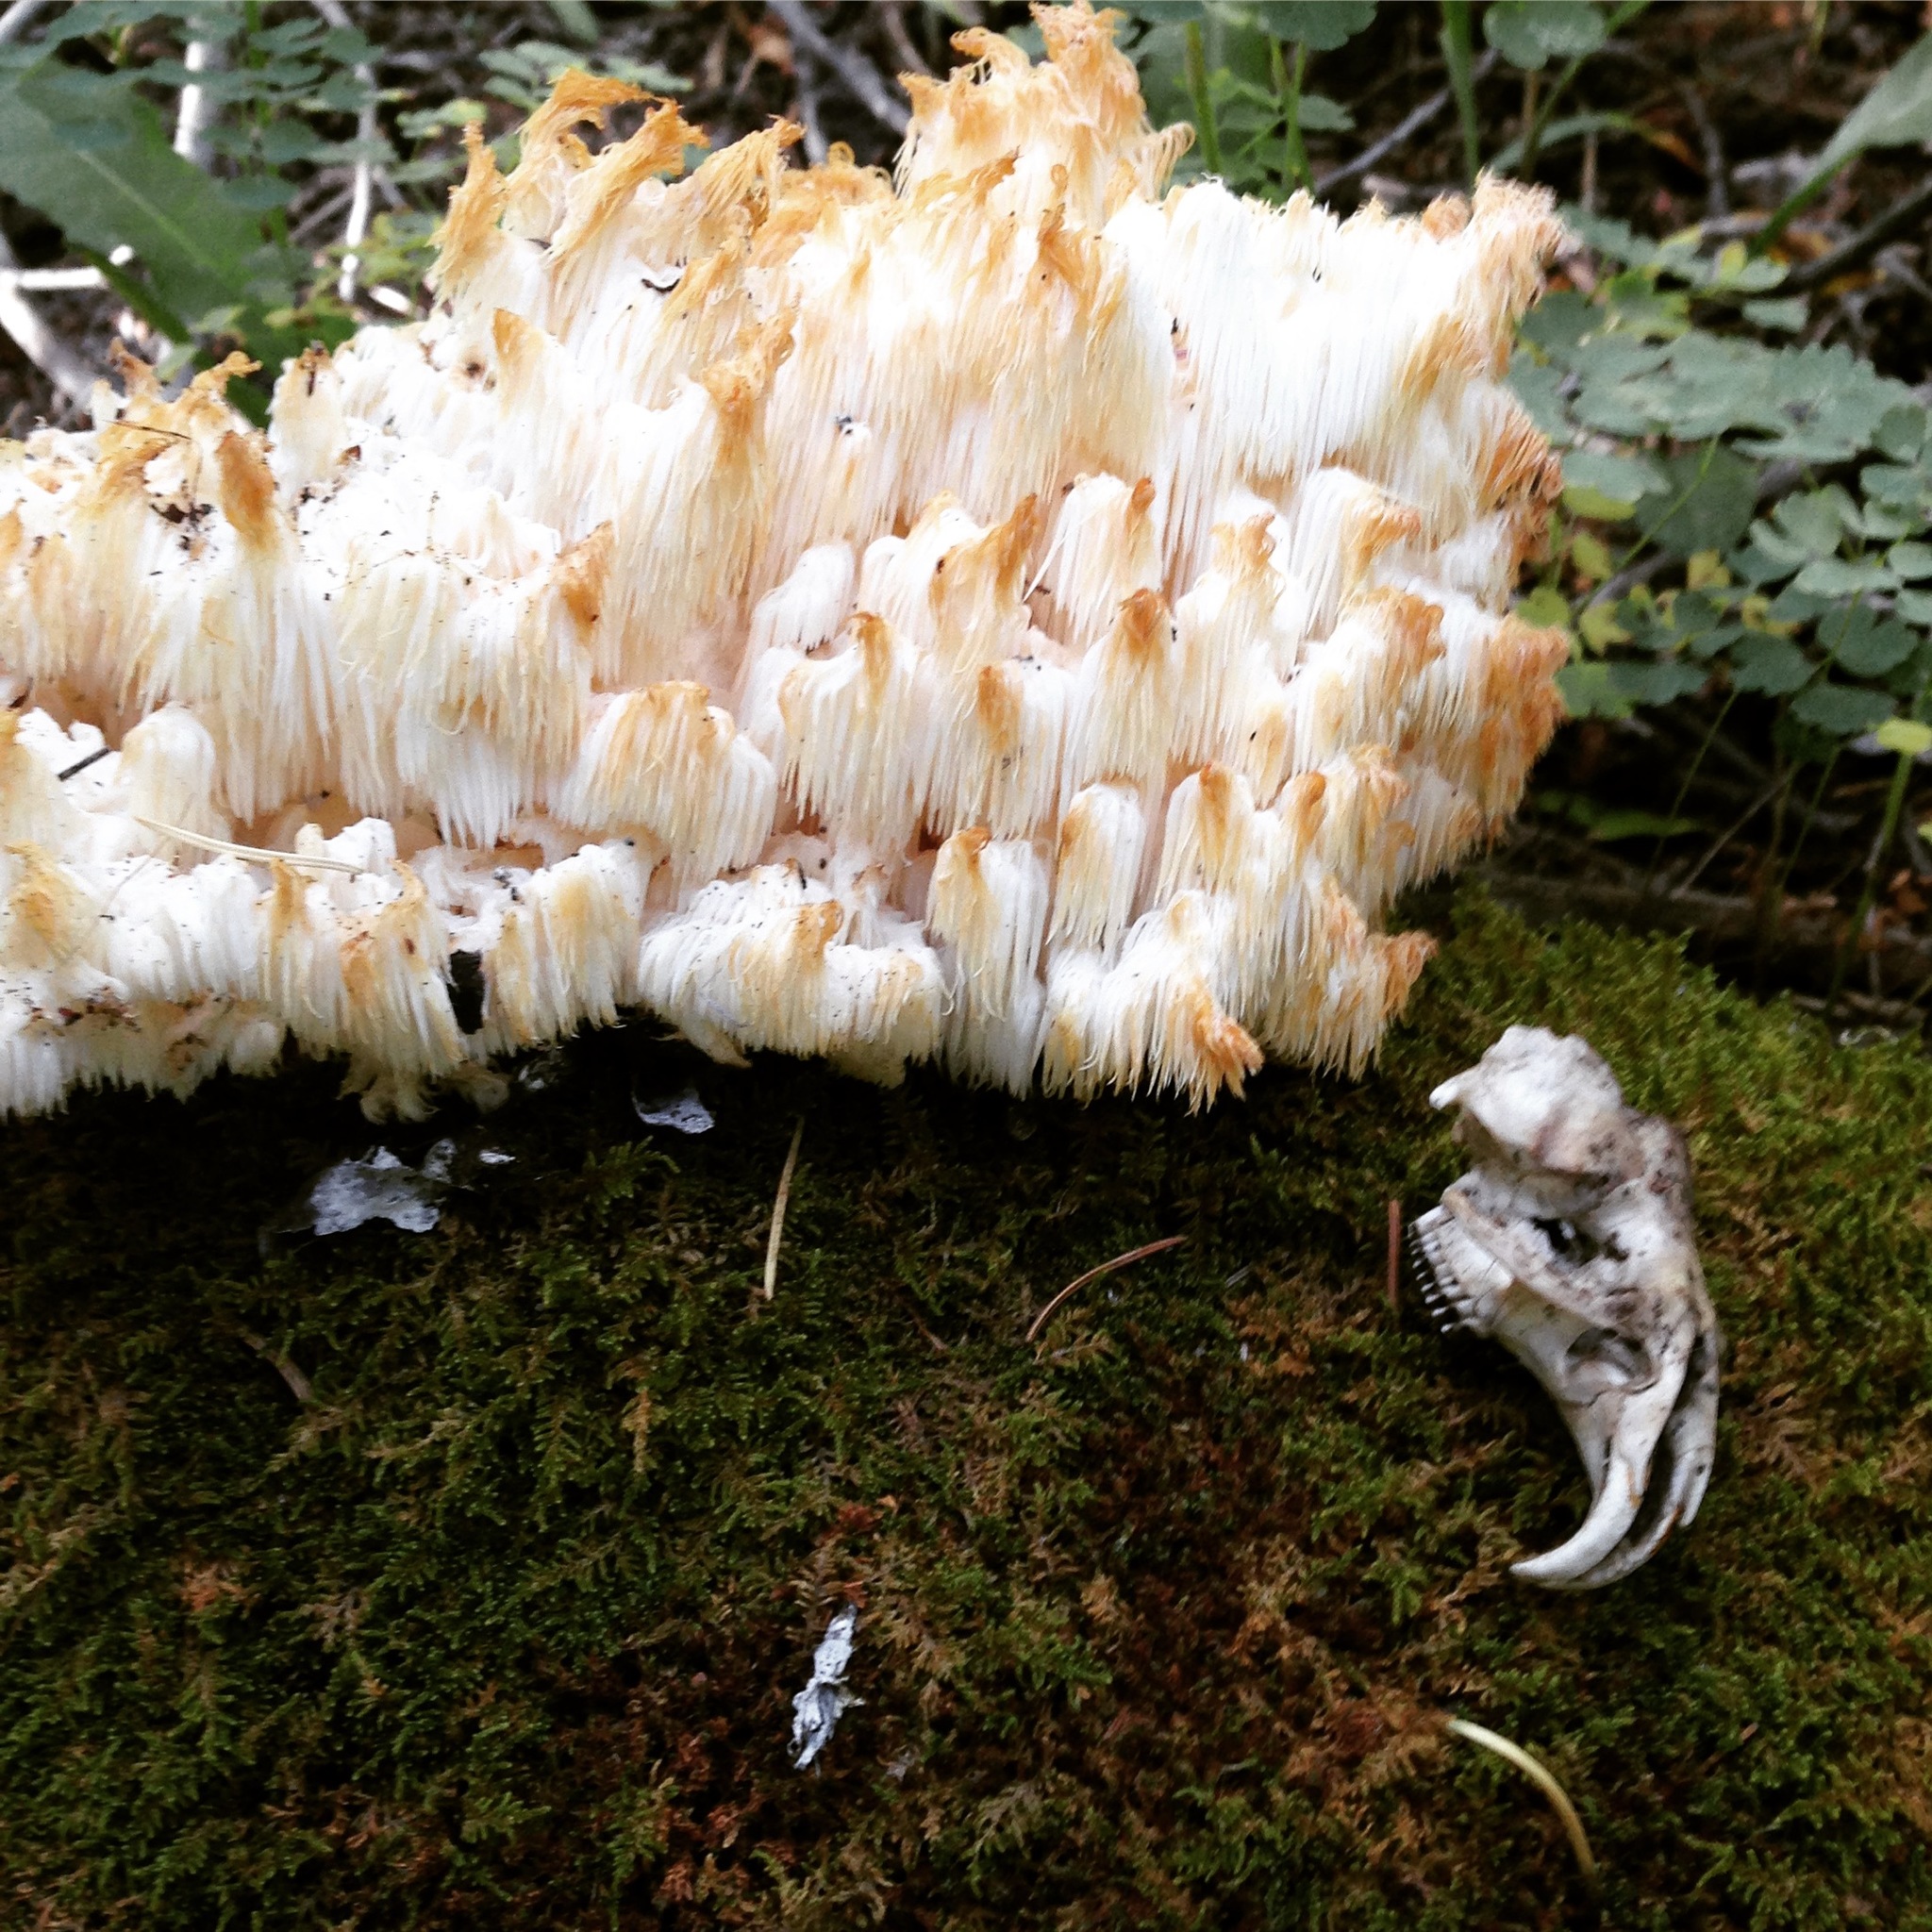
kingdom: Fungi
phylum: Basidiomycota
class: Agaricomycetes
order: Russulales
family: Hericiaceae
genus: Hericium
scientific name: Hericium americanum
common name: Bear's head tooth
